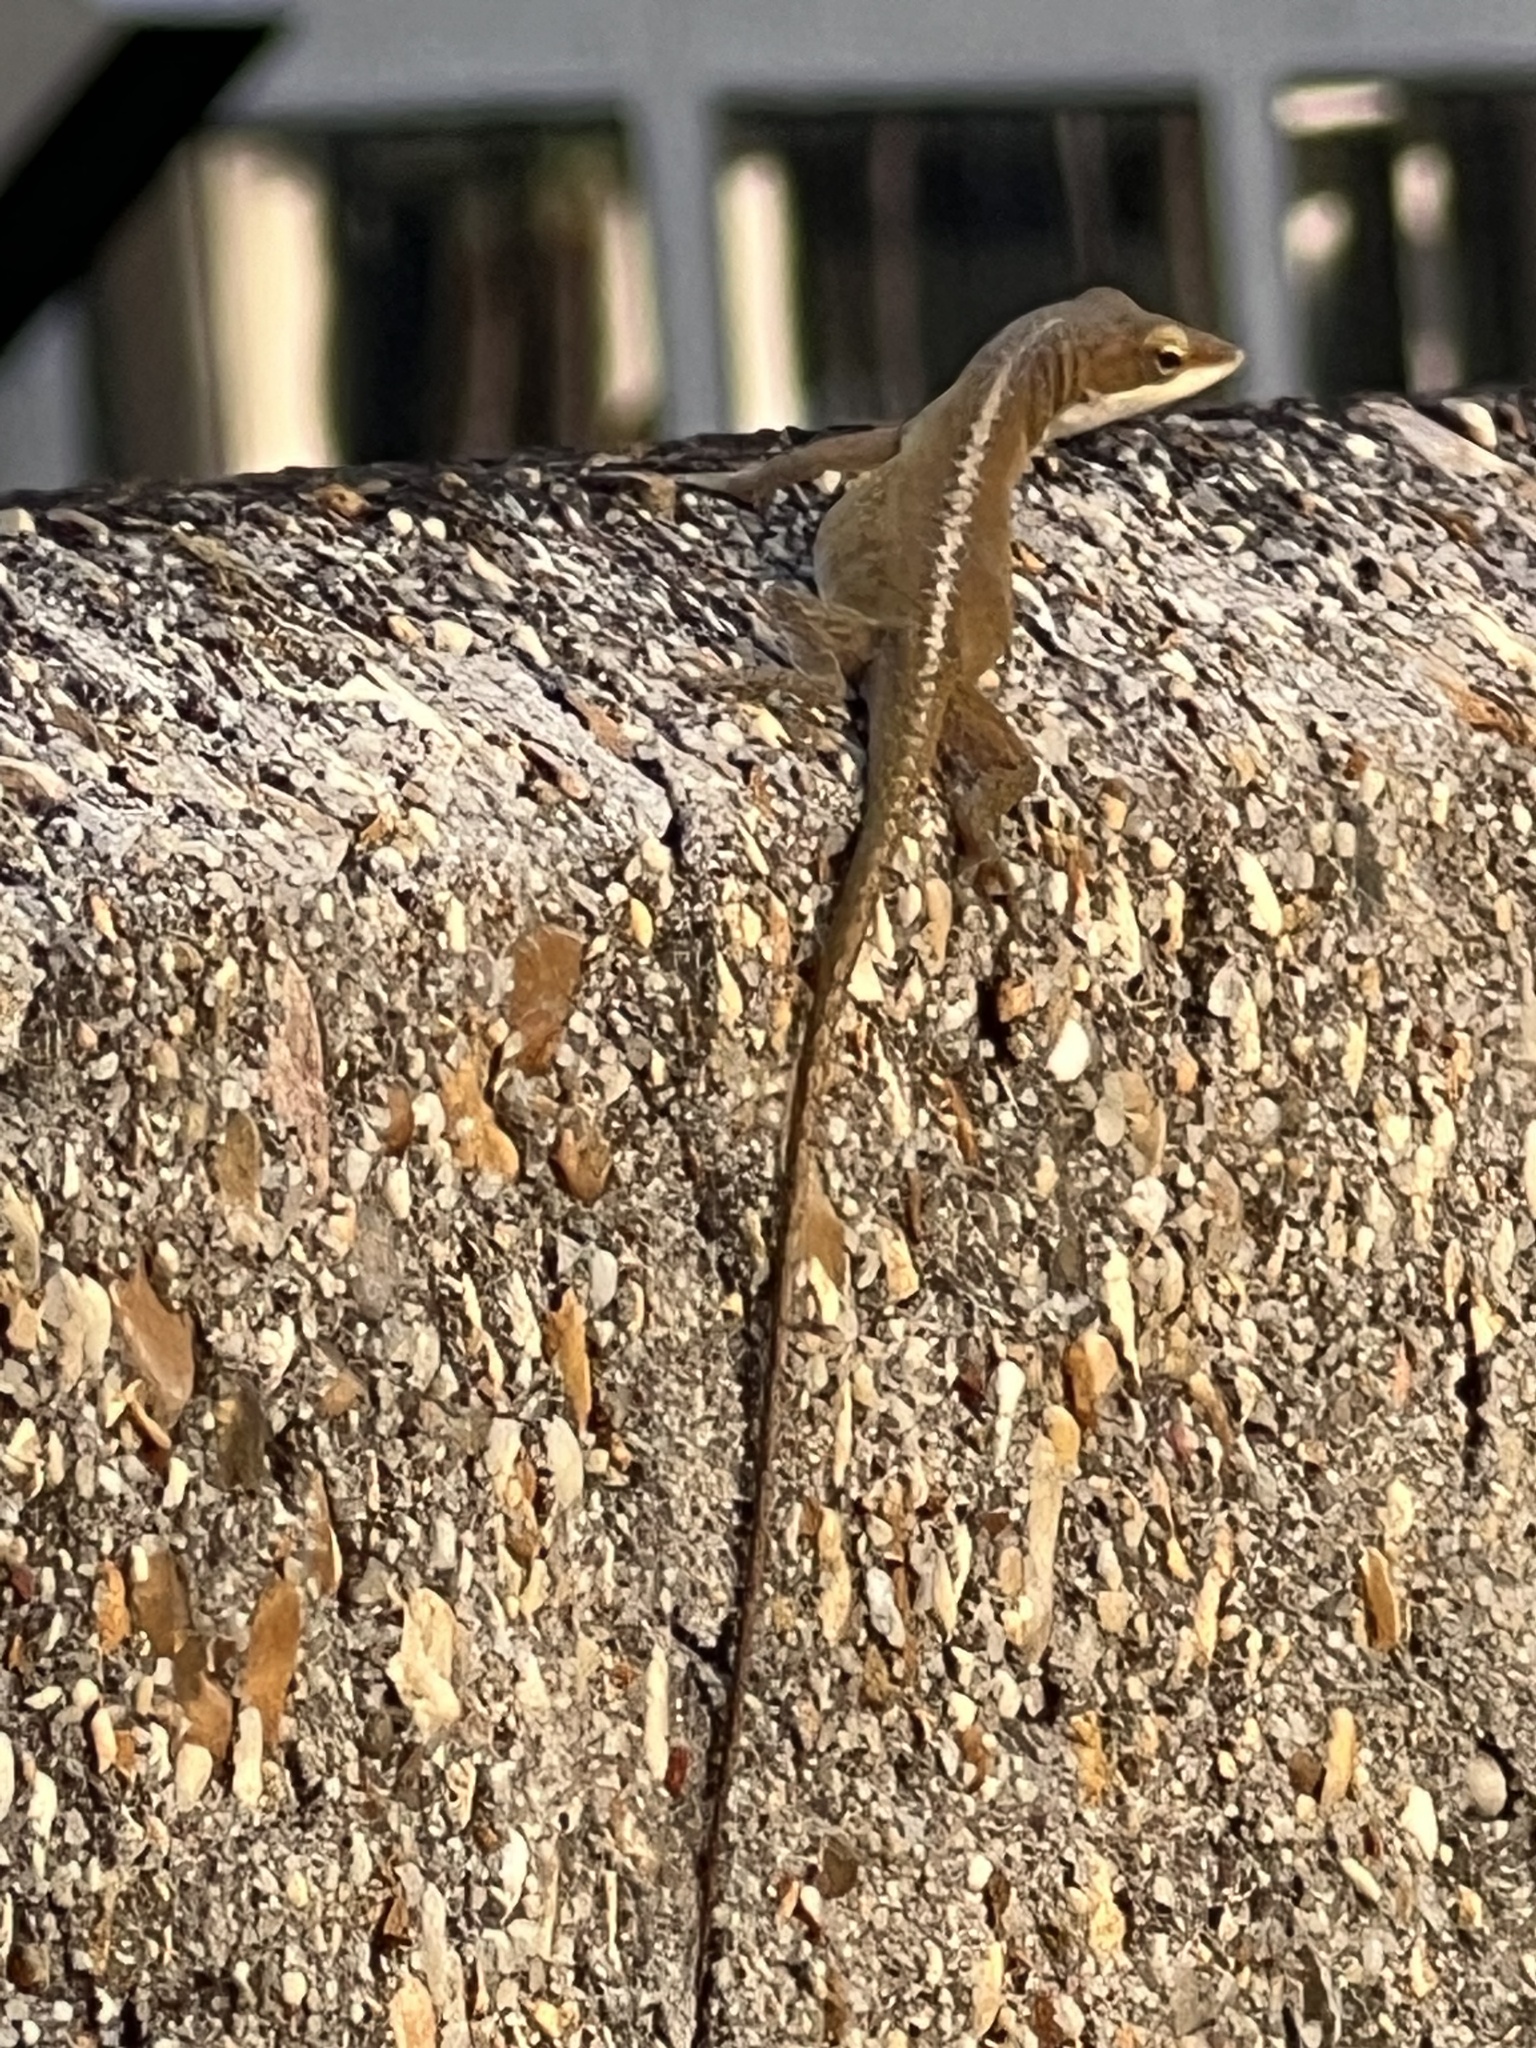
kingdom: Animalia
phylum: Chordata
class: Squamata
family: Dactyloidae
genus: Anolis
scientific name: Anolis carolinensis
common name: Green anole
